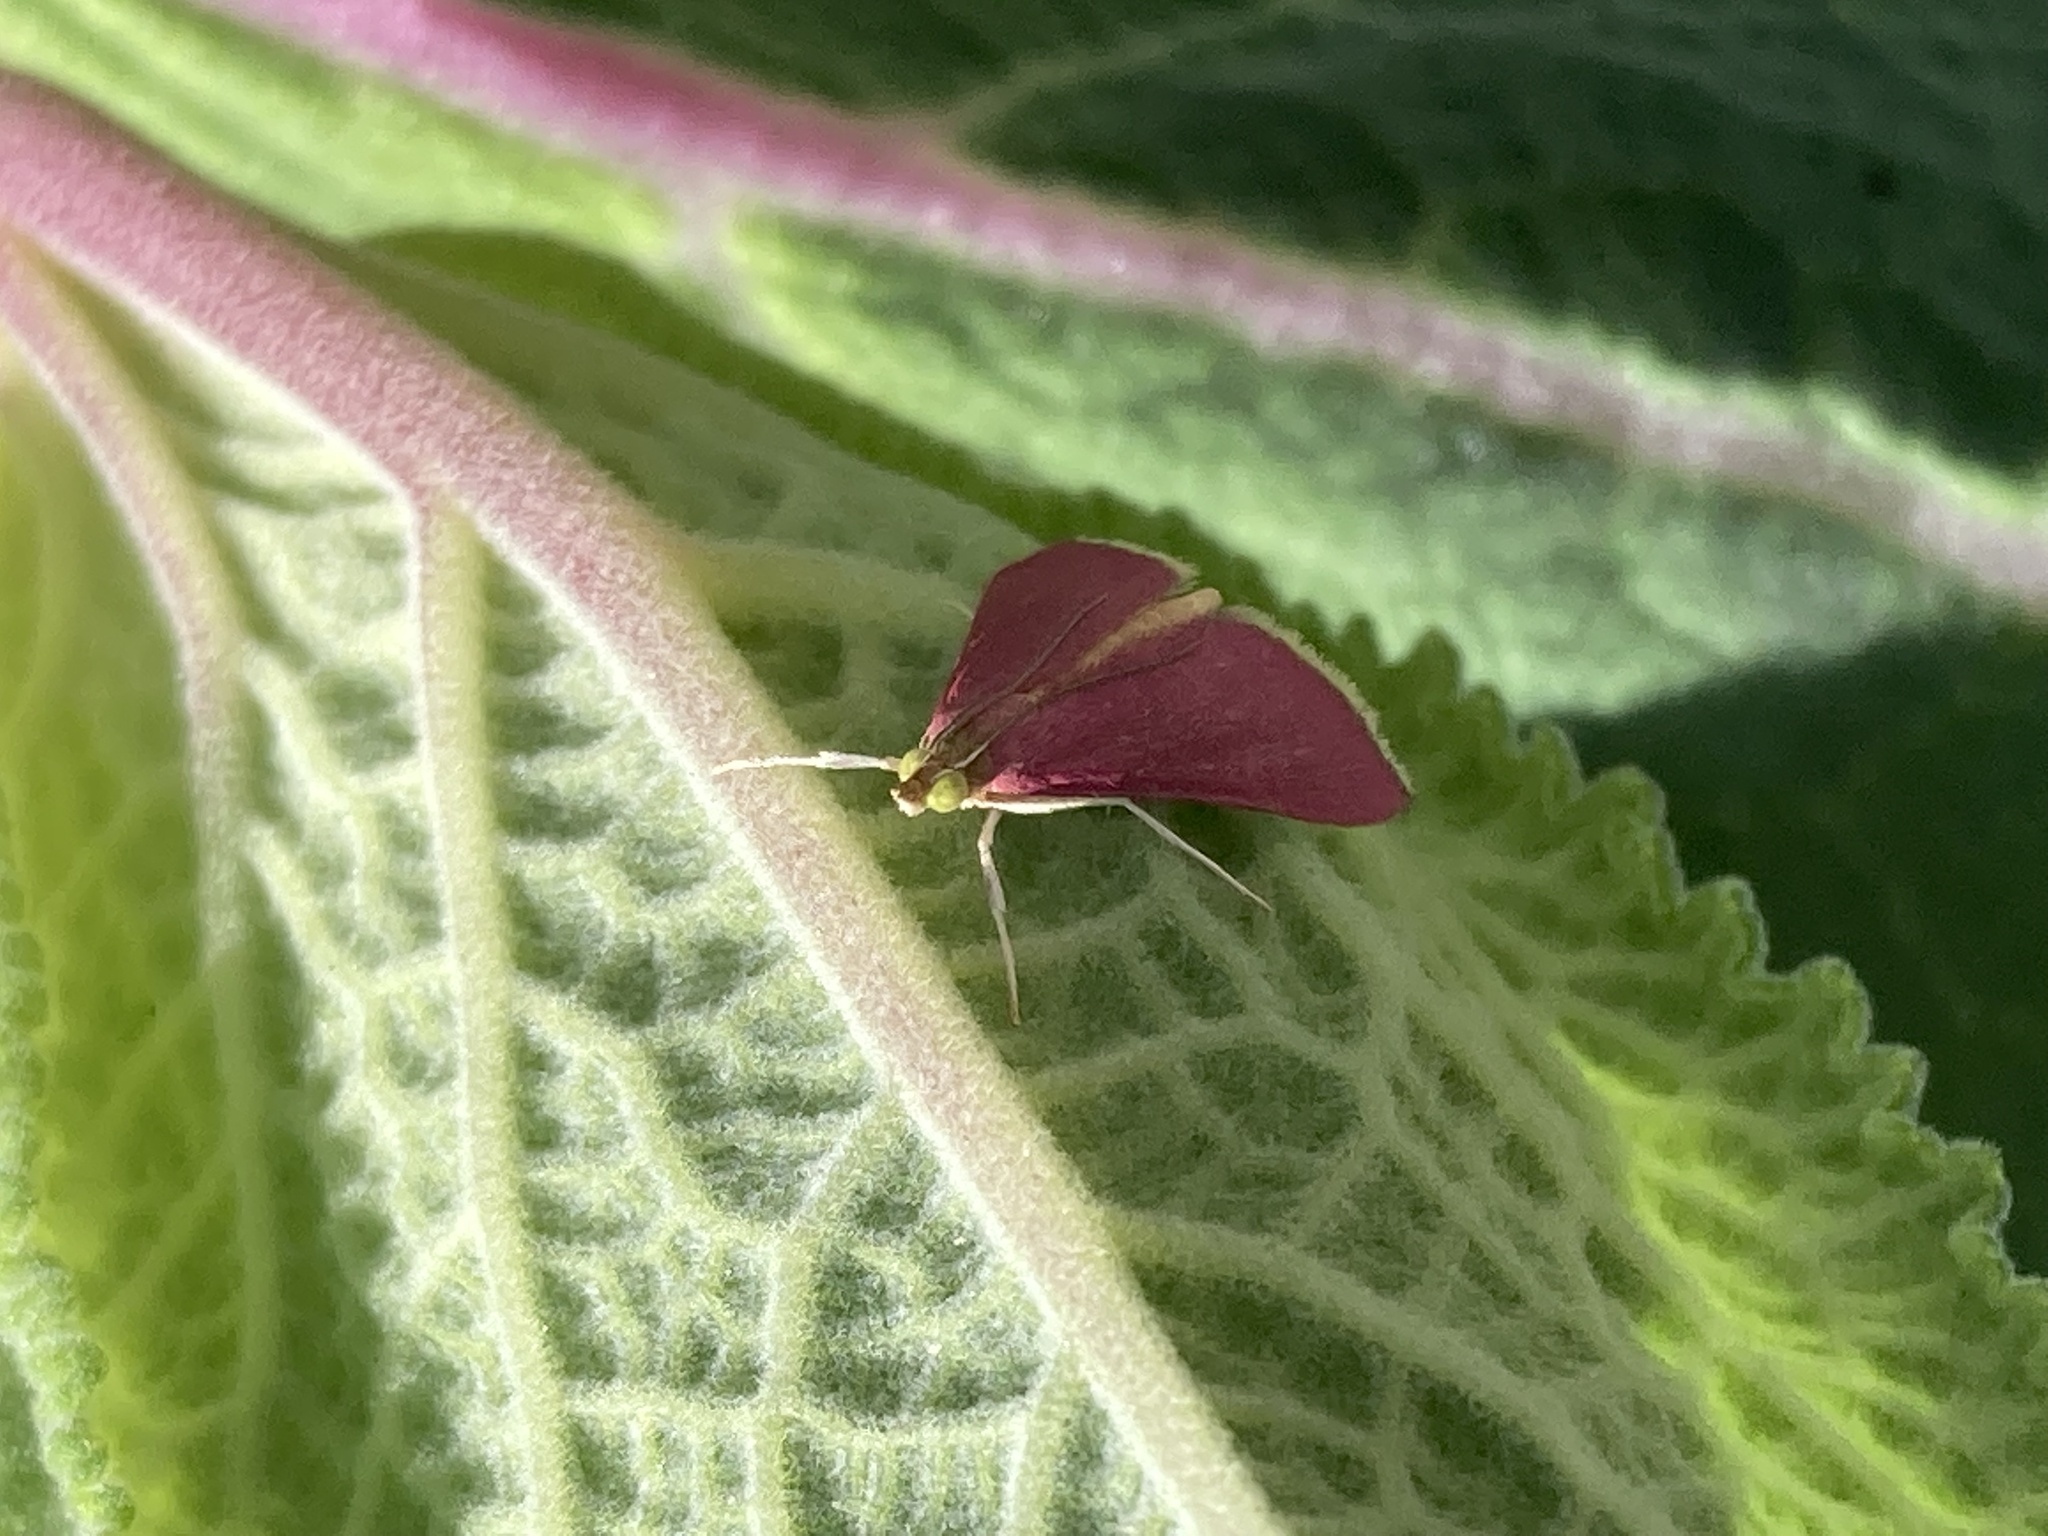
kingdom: Animalia
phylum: Arthropoda
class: Insecta
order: Lepidoptera
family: Crambidae
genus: Pyrausta
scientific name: Pyrausta inornatalis
